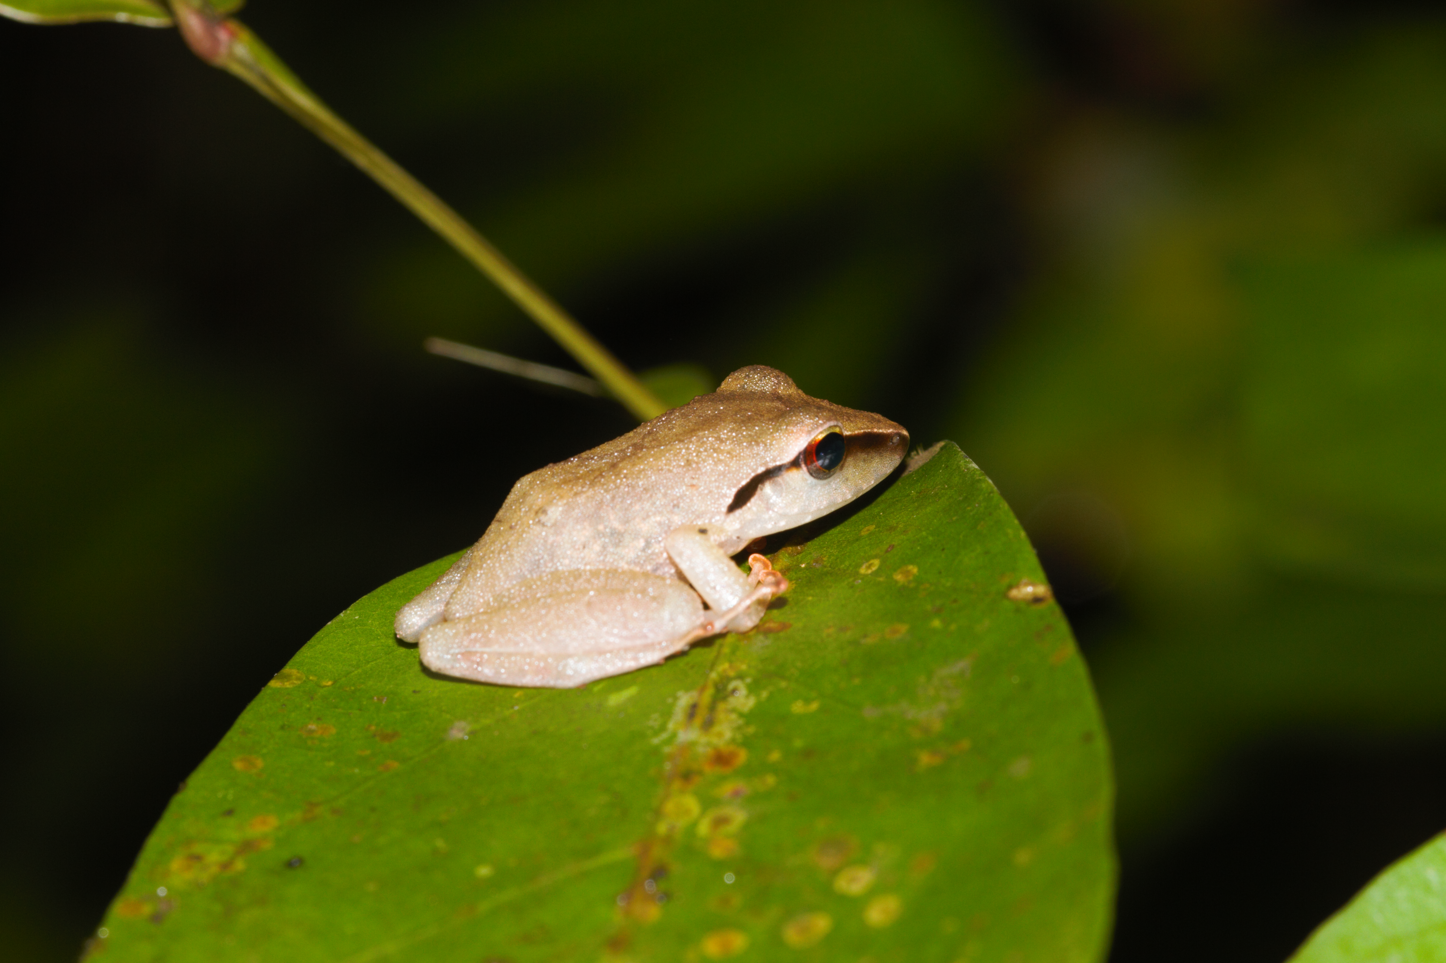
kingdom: Animalia
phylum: Chordata
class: Amphibia
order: Anura
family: Craugastoridae
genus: Pristimantis
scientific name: Pristimantis chiastonotus
